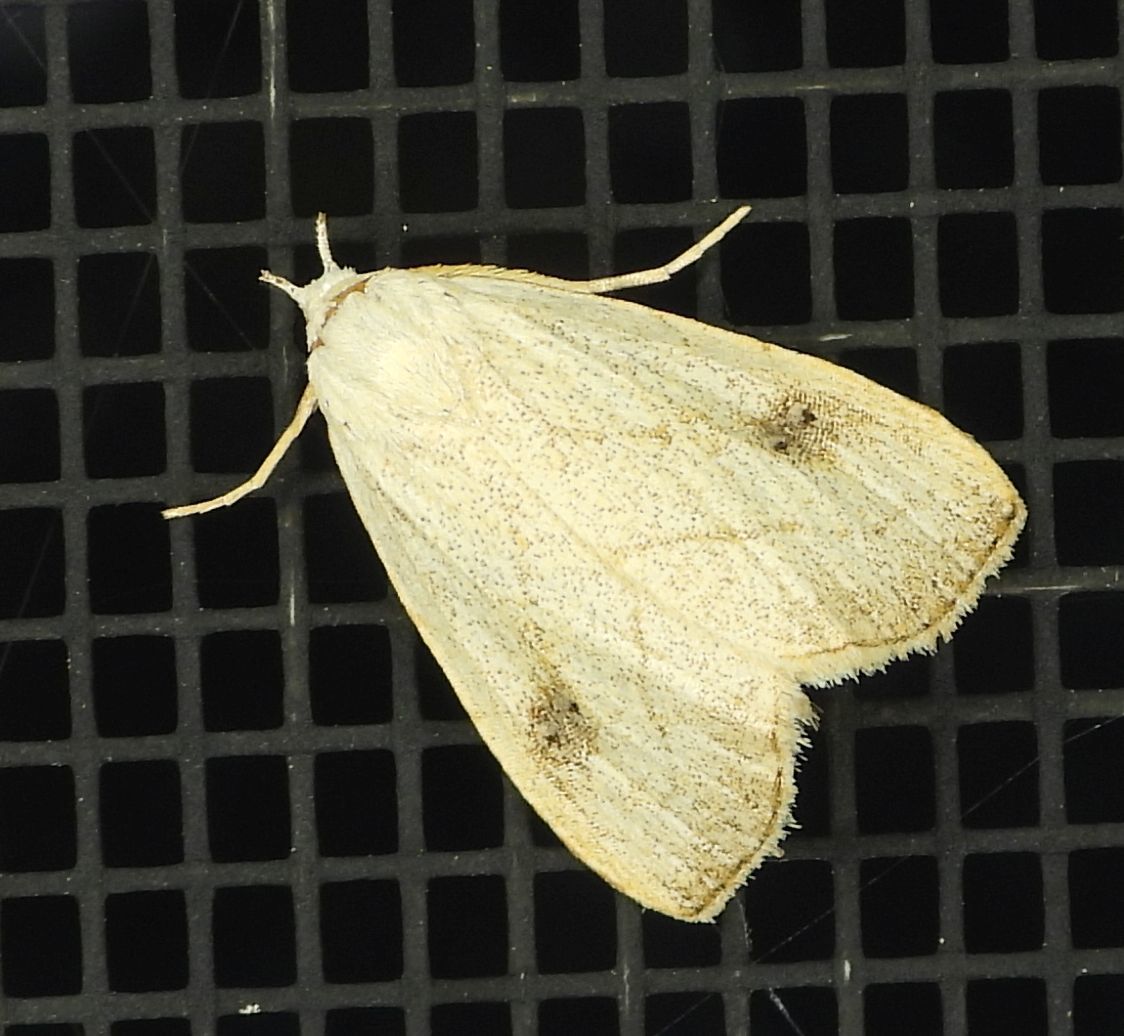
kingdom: Animalia
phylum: Arthropoda
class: Insecta
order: Lepidoptera
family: Erebidae
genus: Rivula
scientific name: Rivula propinqualis
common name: Spotted grass moth
